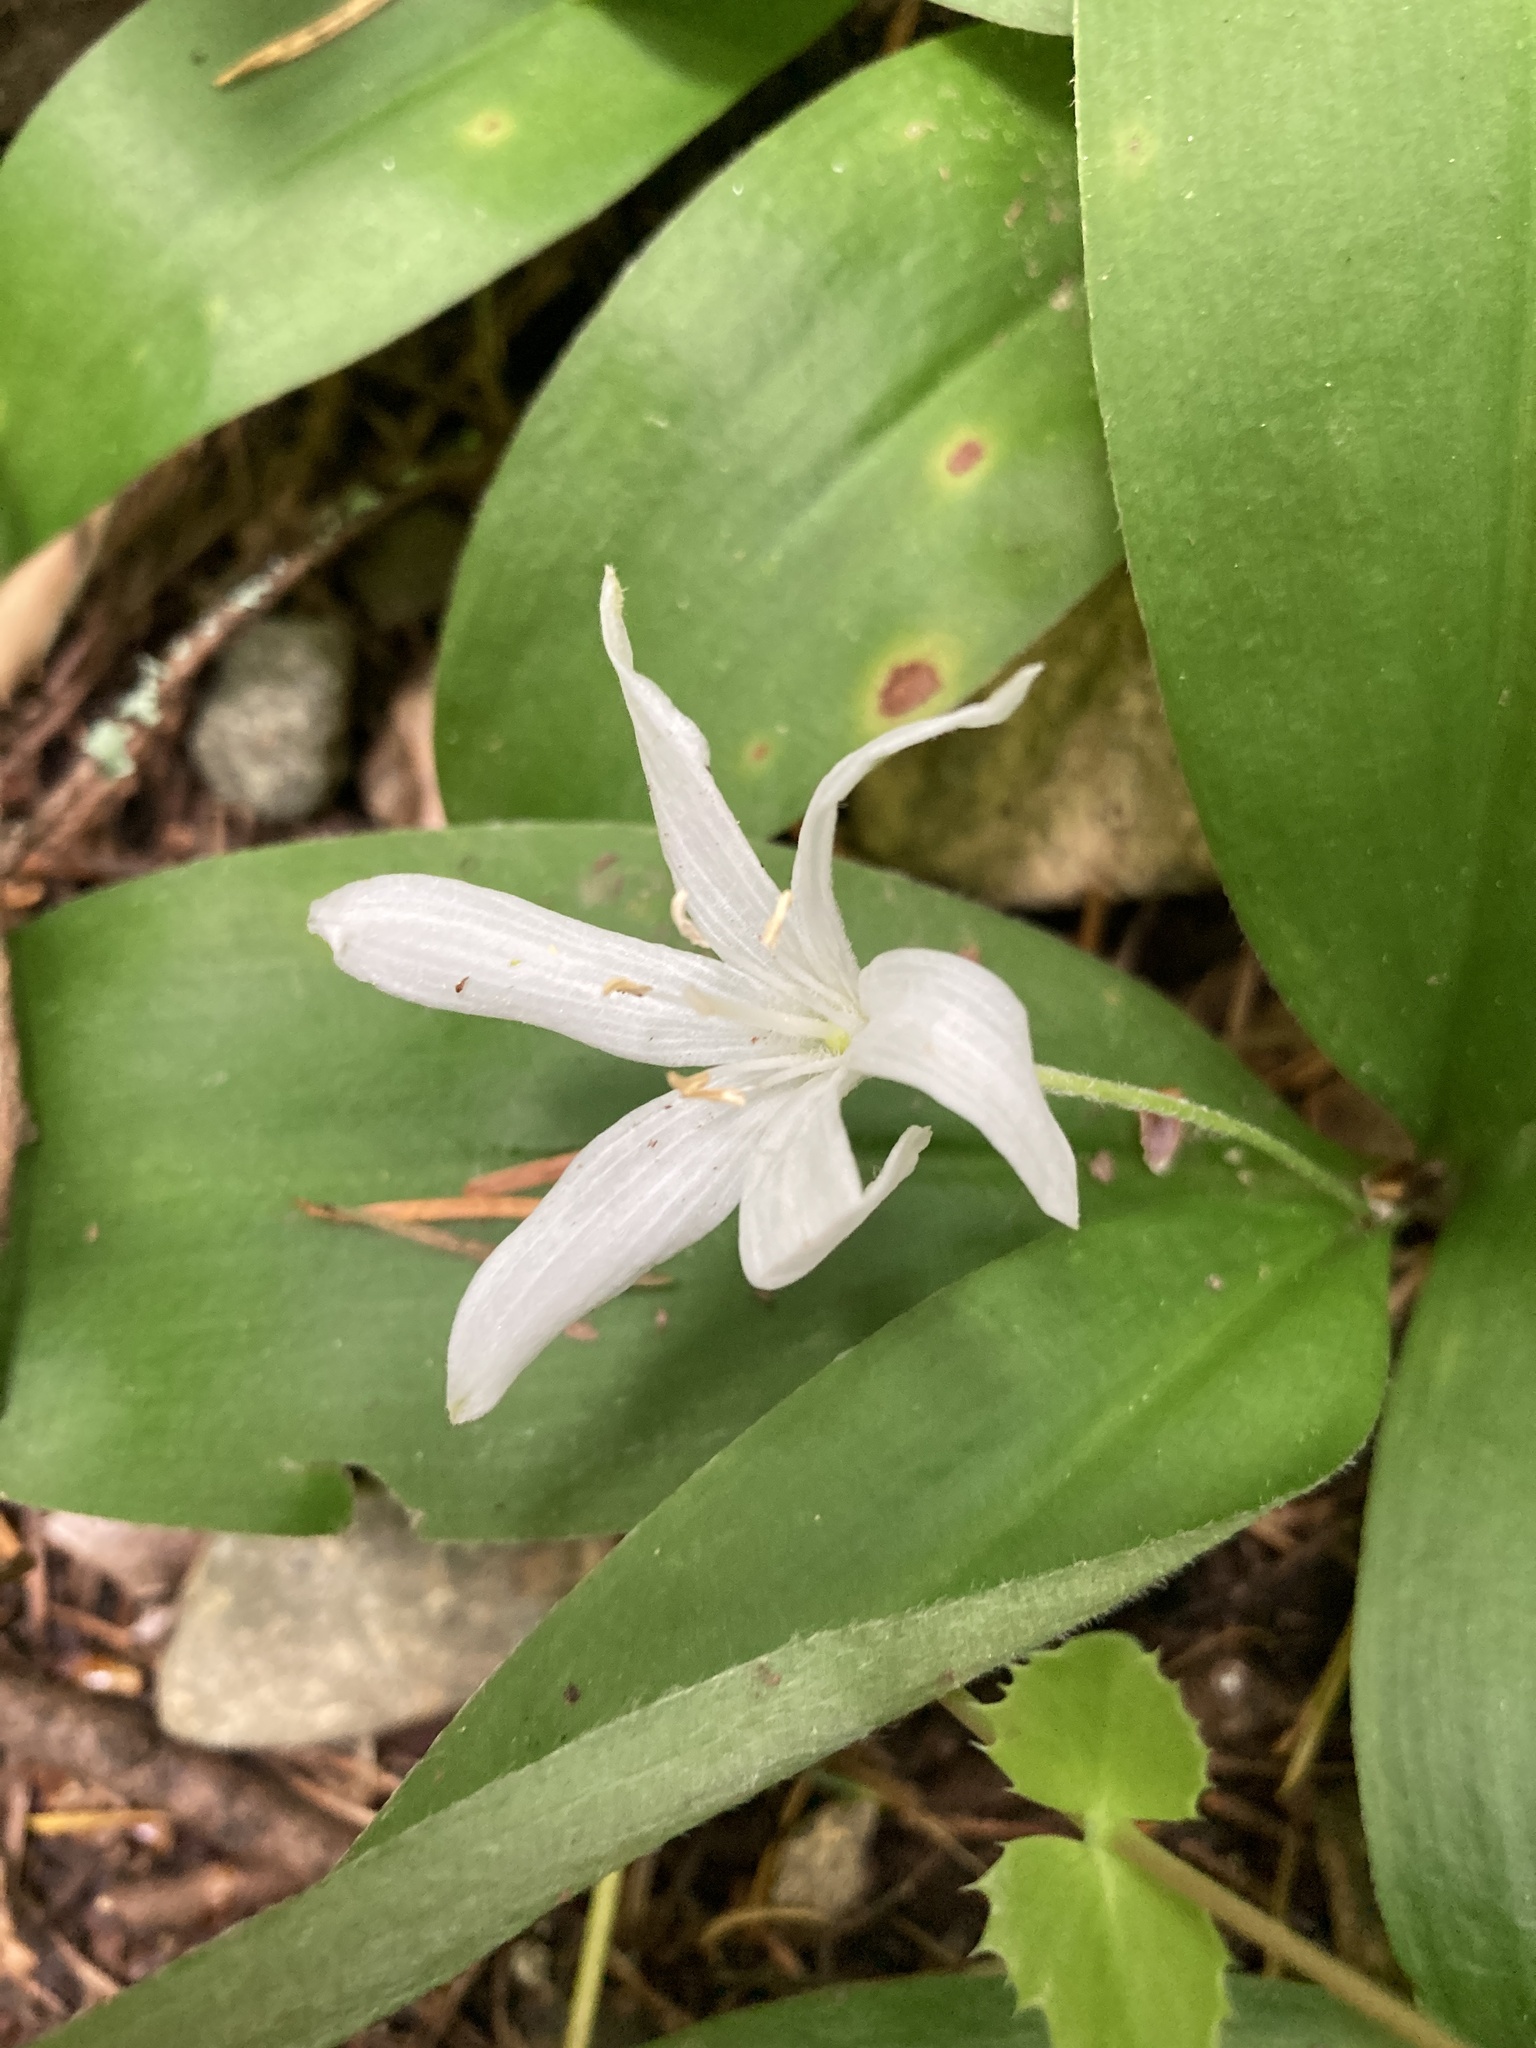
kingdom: Plantae
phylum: Tracheophyta
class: Liliopsida
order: Liliales
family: Liliaceae
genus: Clintonia
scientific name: Clintonia uniflora
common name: Queen's cup
